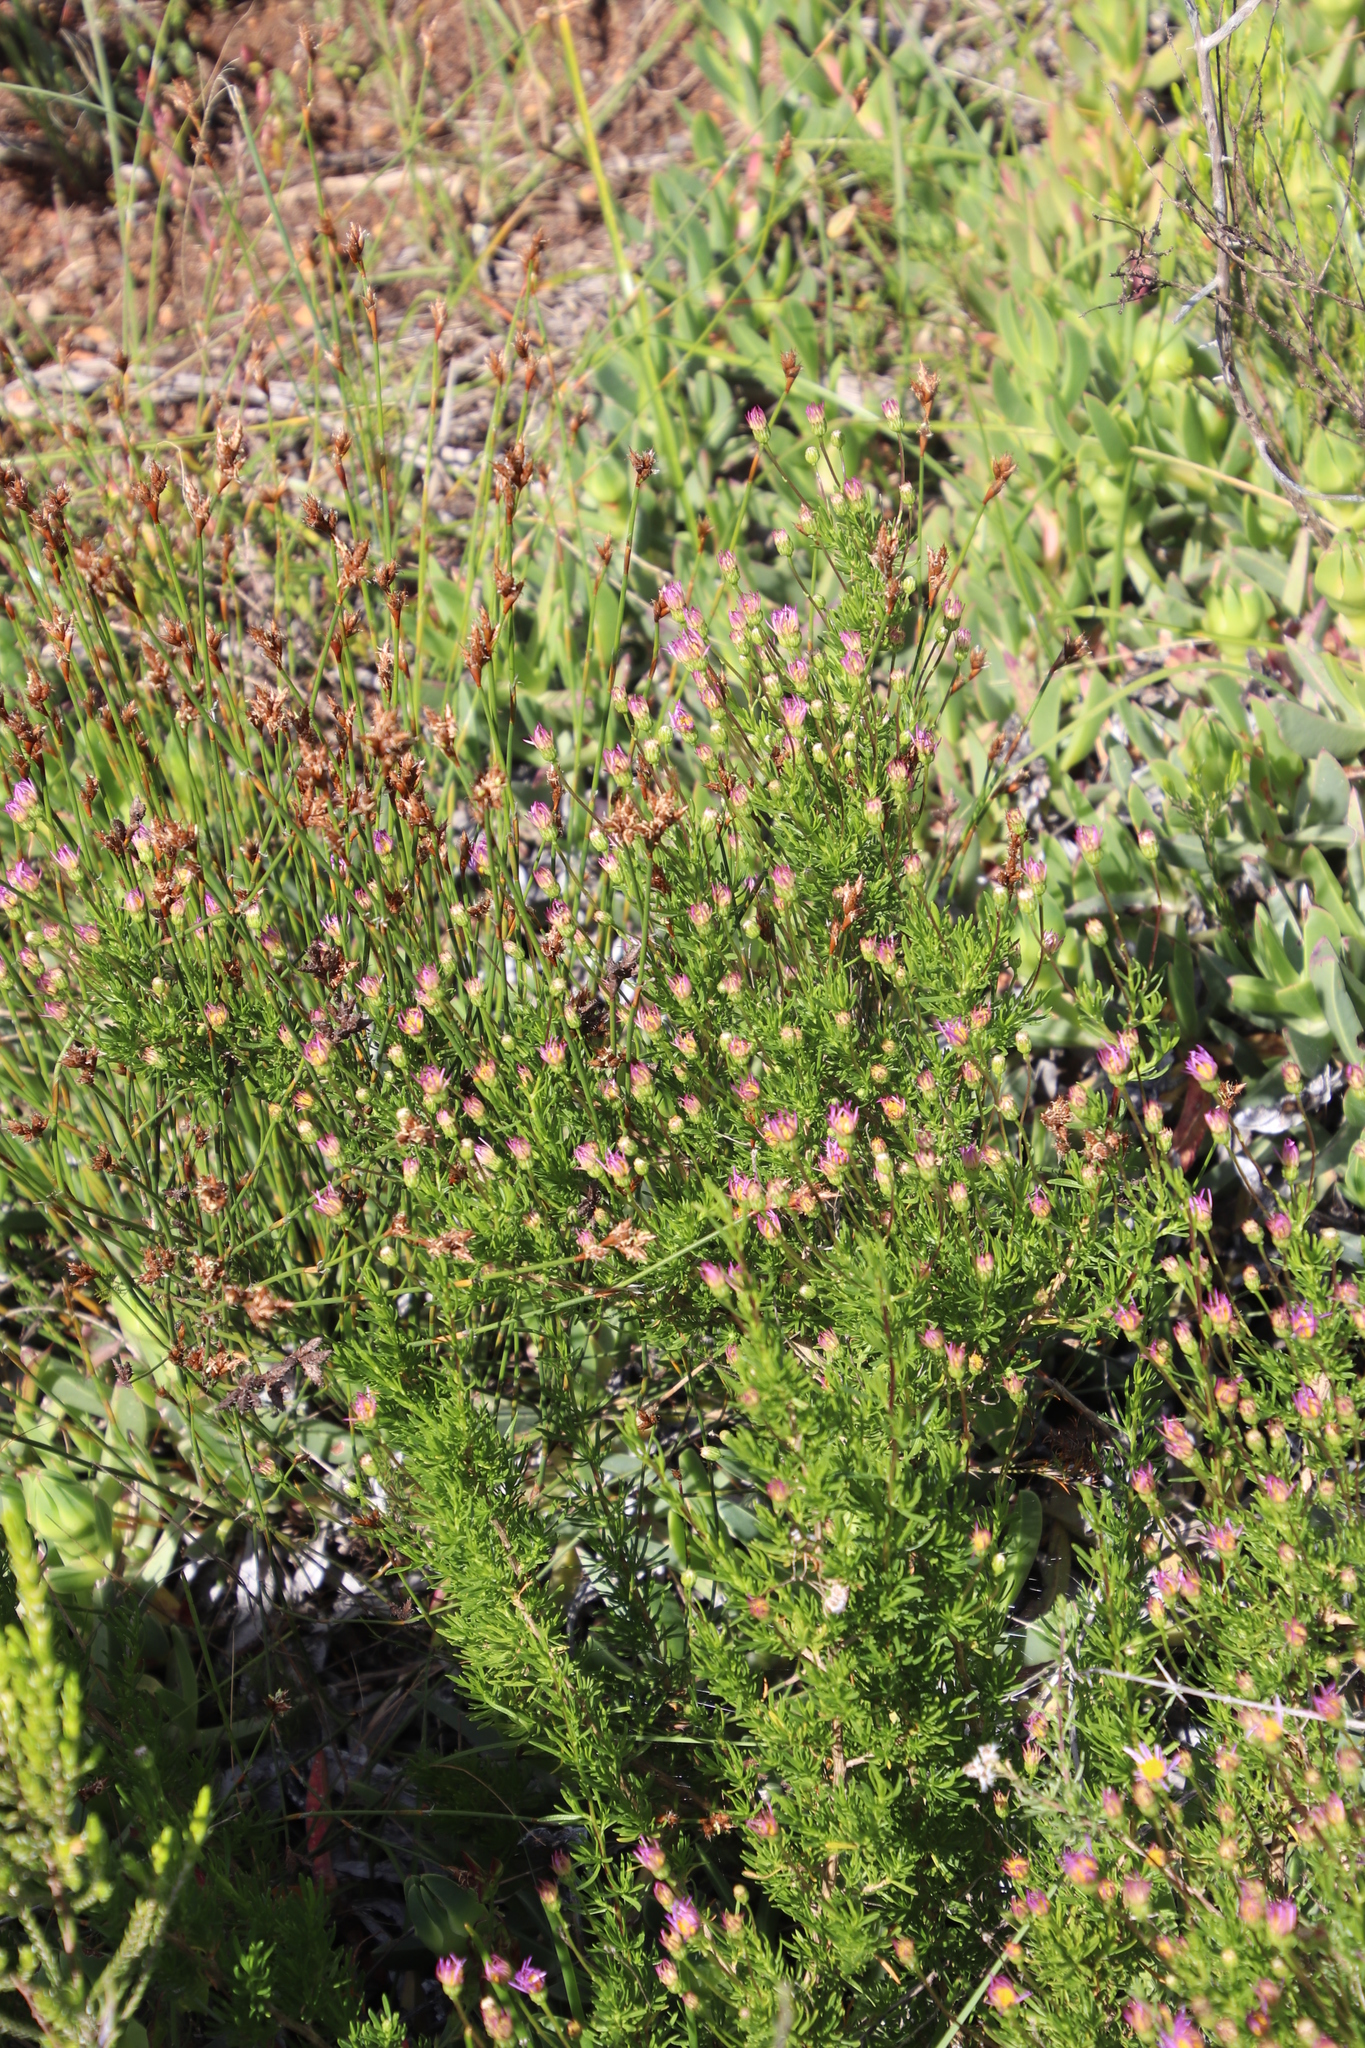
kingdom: Plantae
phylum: Tracheophyta
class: Magnoliopsida
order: Asterales
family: Asteraceae
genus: Felicia
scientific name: Felicia fruticosa
